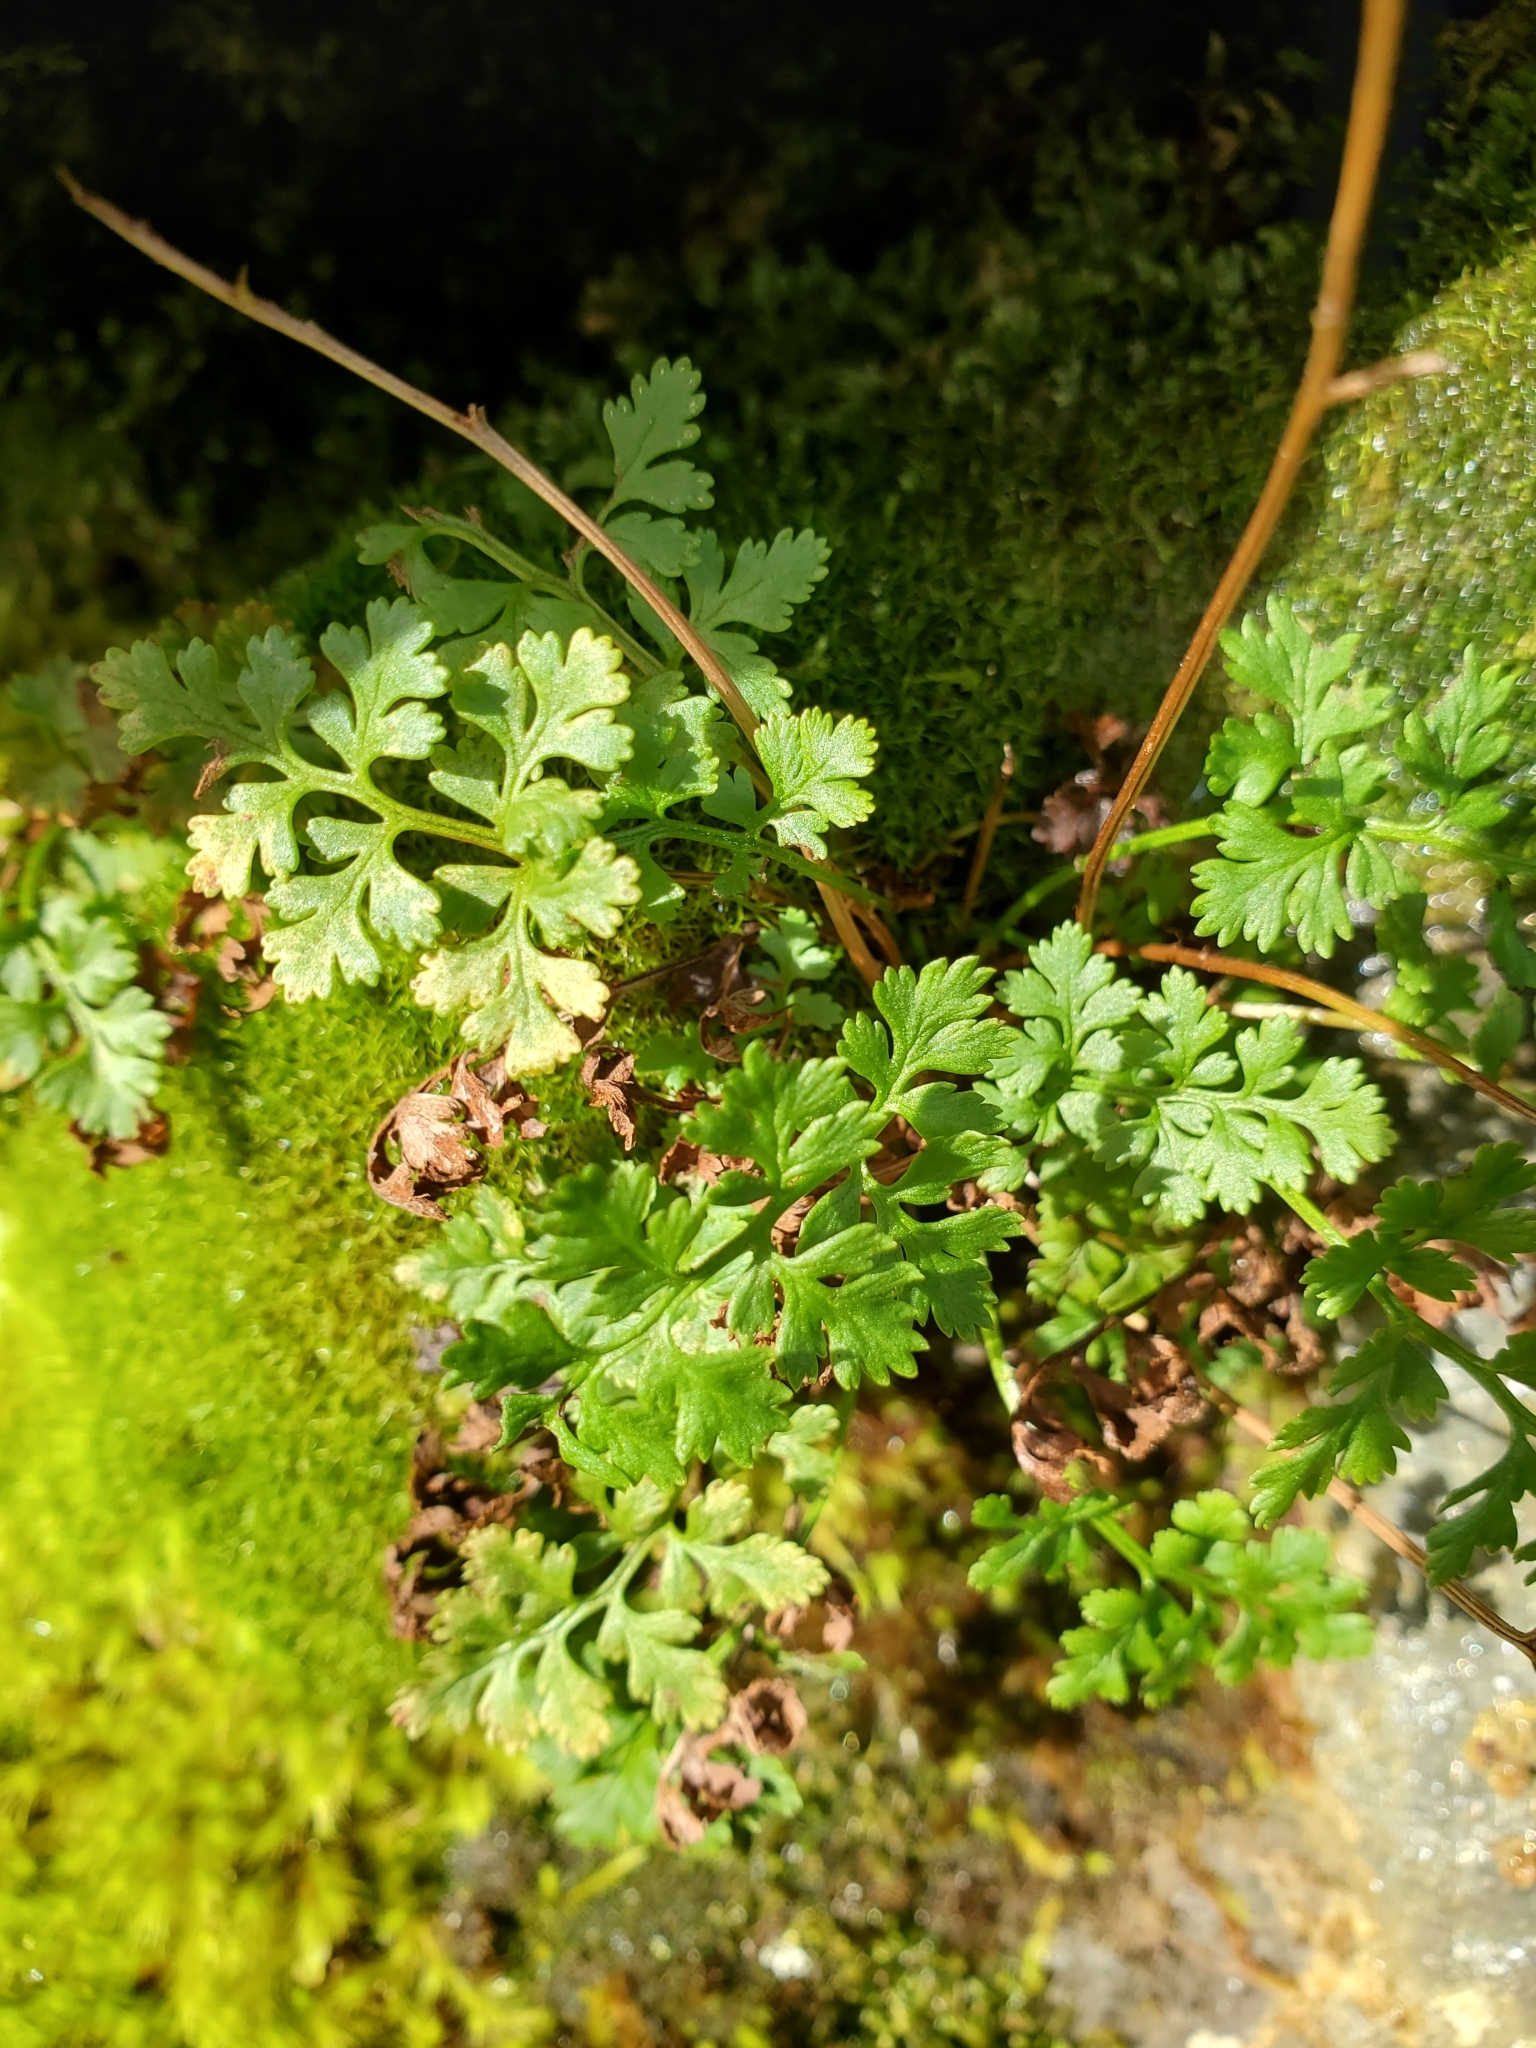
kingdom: Plantae
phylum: Tracheophyta
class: Polypodiopsida
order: Polypodiales
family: Pteridaceae
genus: Cryptogramma
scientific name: Cryptogramma acrostichoides
